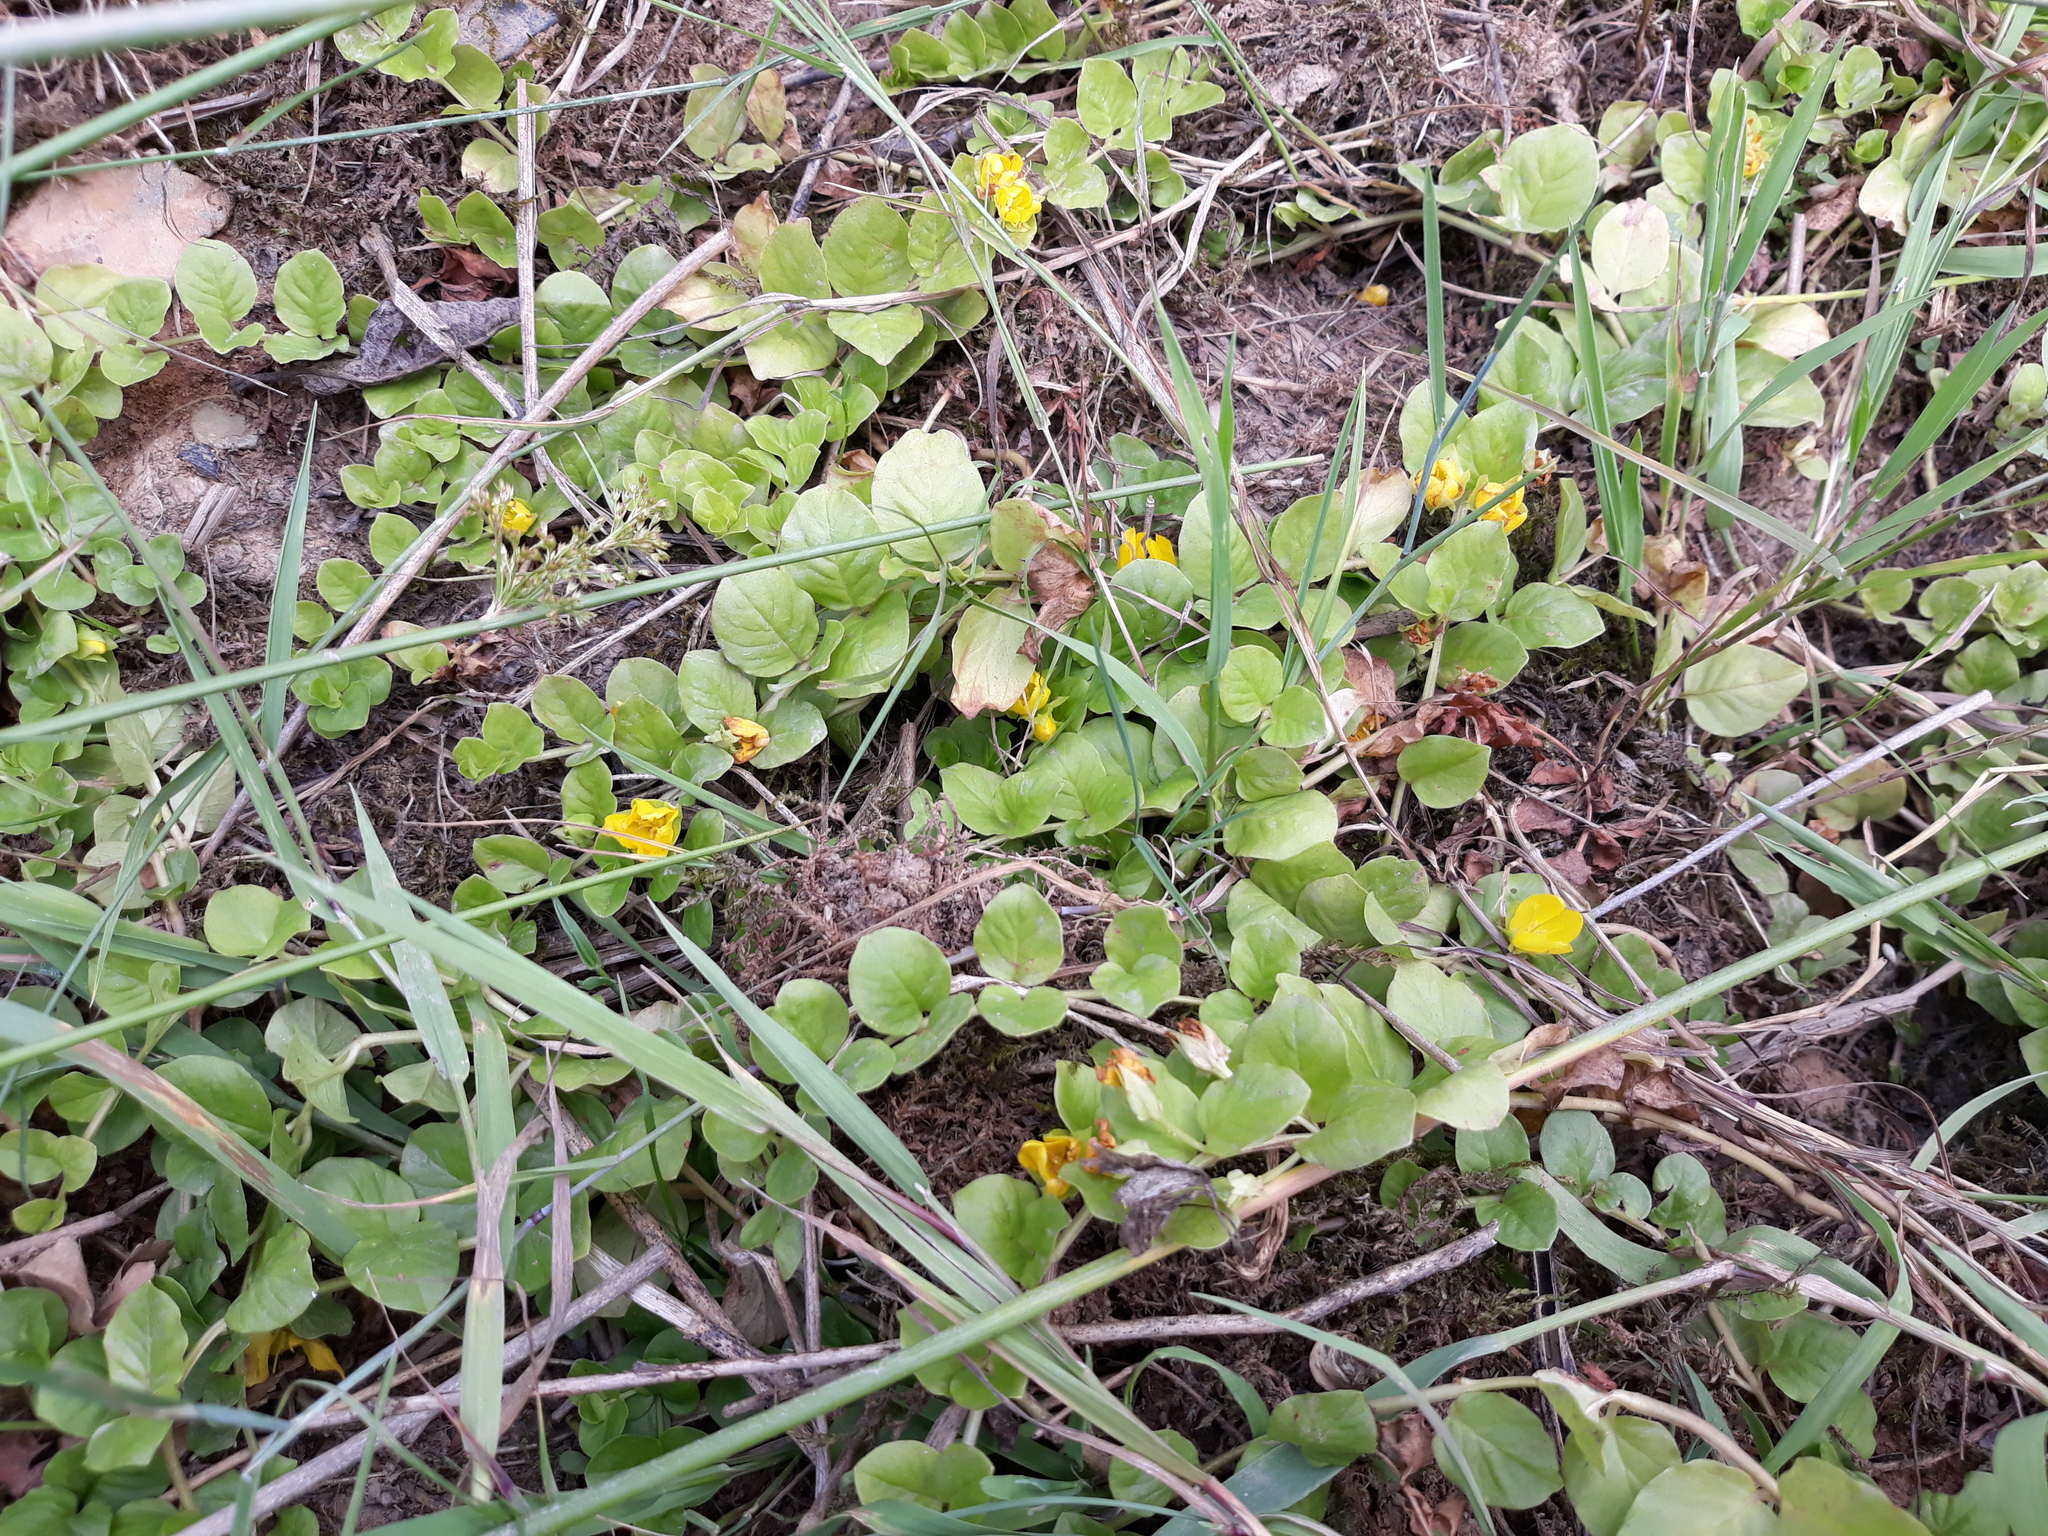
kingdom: Plantae
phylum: Tracheophyta
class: Magnoliopsida
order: Ericales
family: Primulaceae
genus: Lysimachia
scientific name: Lysimachia nummularia
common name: Moneywort
